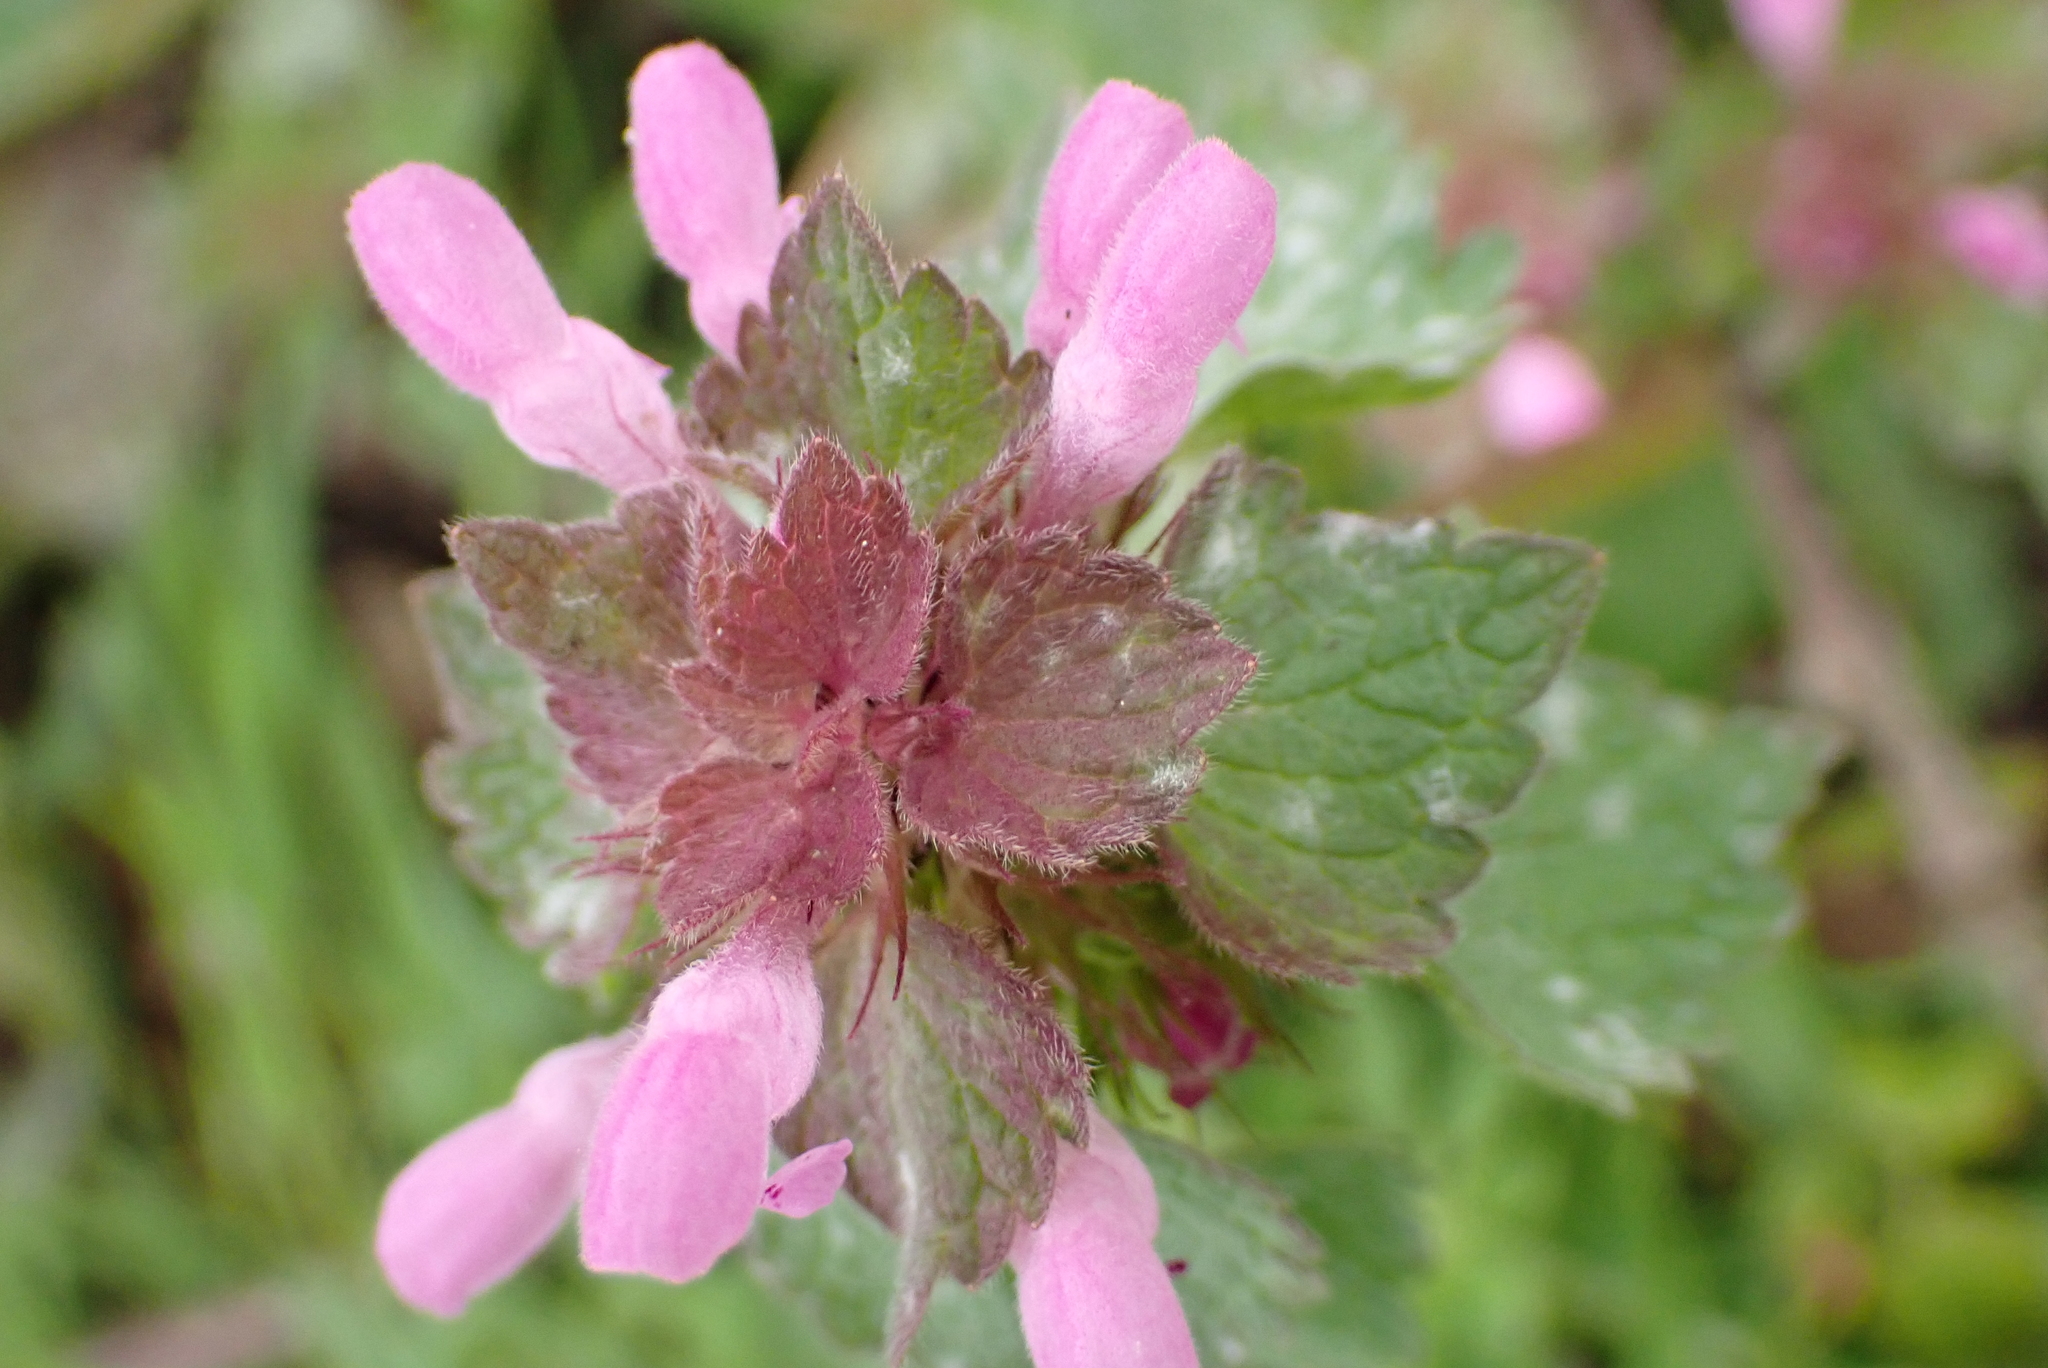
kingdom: Plantae
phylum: Tracheophyta
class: Magnoliopsida
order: Lamiales
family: Lamiaceae
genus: Lamium
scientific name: Lamium purpureum
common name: Red dead-nettle
